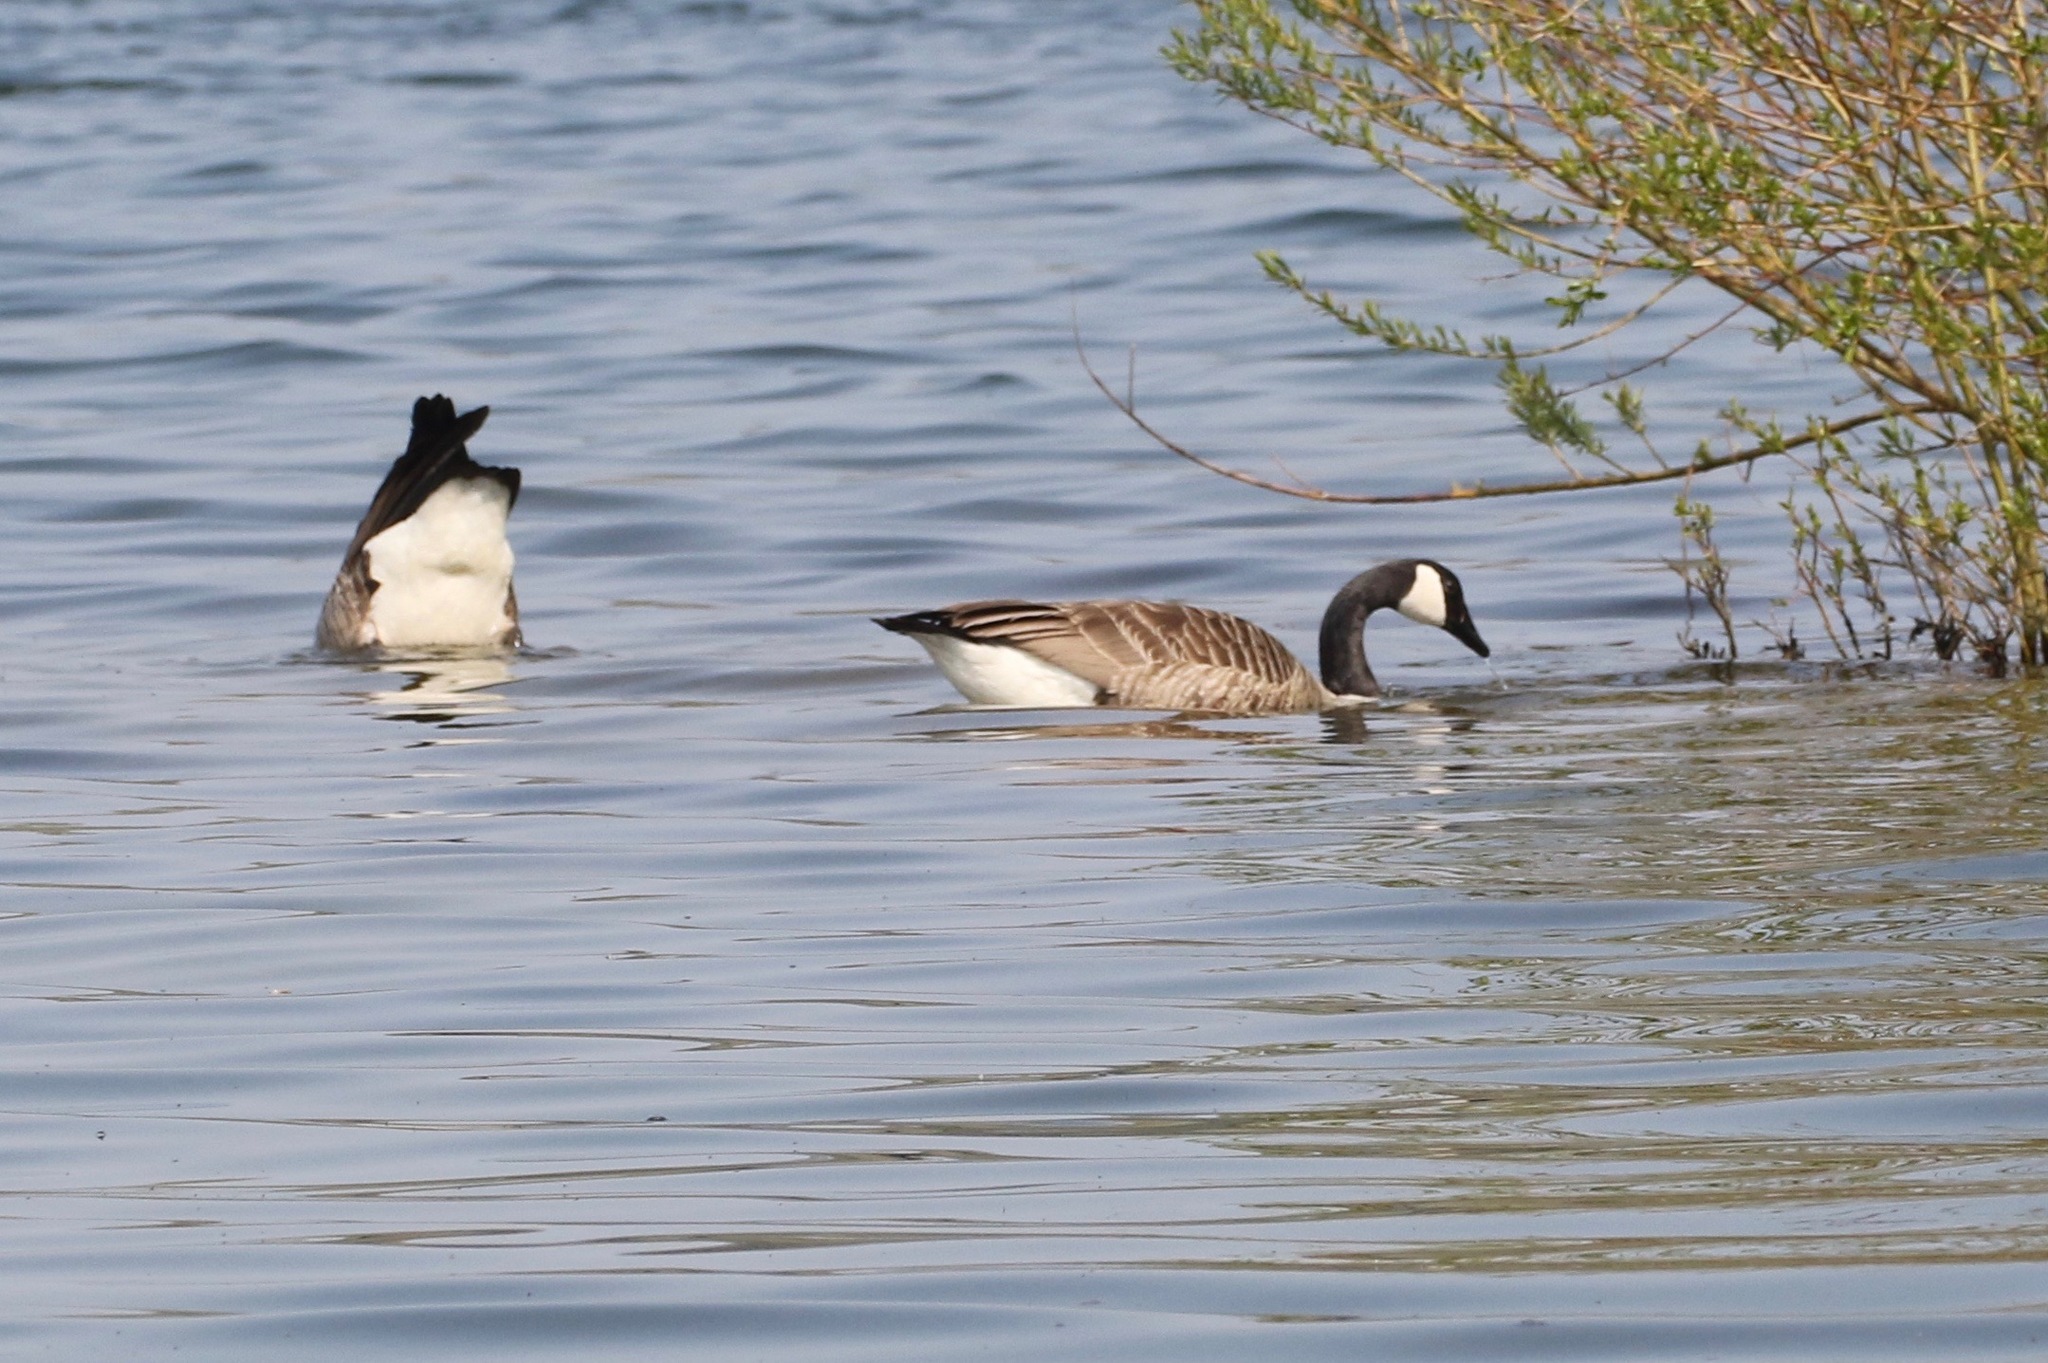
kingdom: Animalia
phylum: Chordata
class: Aves
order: Anseriformes
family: Anatidae
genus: Branta
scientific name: Branta canadensis
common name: Canada goose
